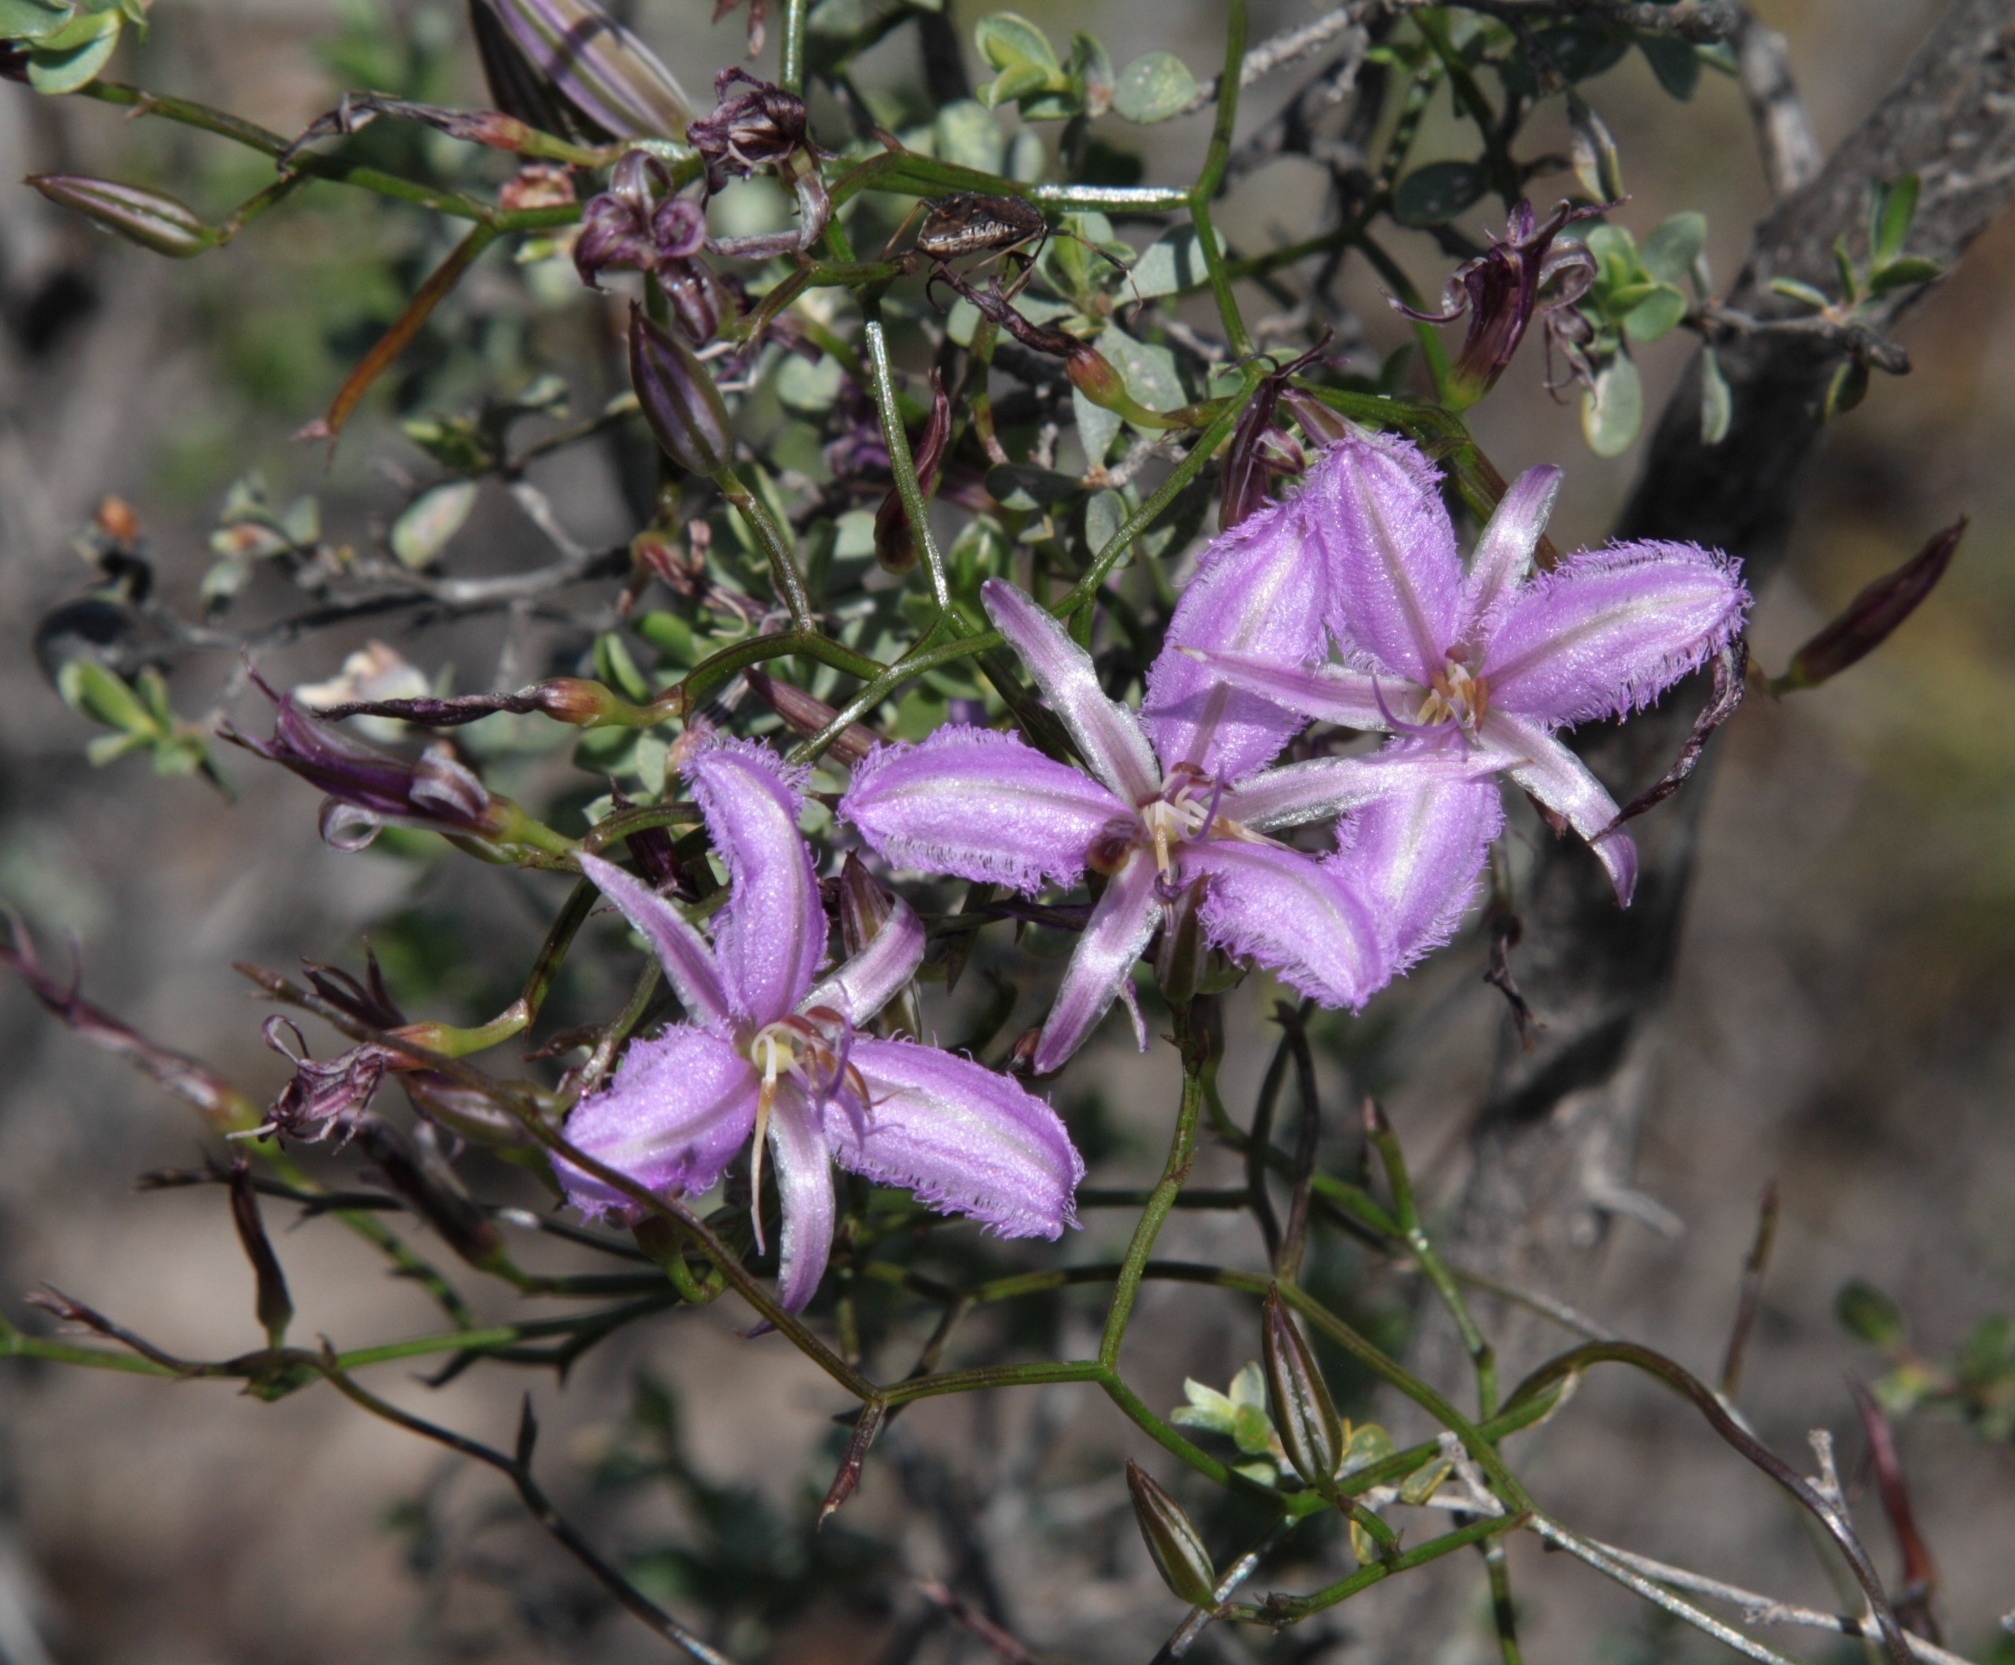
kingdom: Plantae
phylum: Tracheophyta
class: Liliopsida
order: Asparagales
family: Asparagaceae
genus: Thysanotus
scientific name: Thysanotus manglesianus
